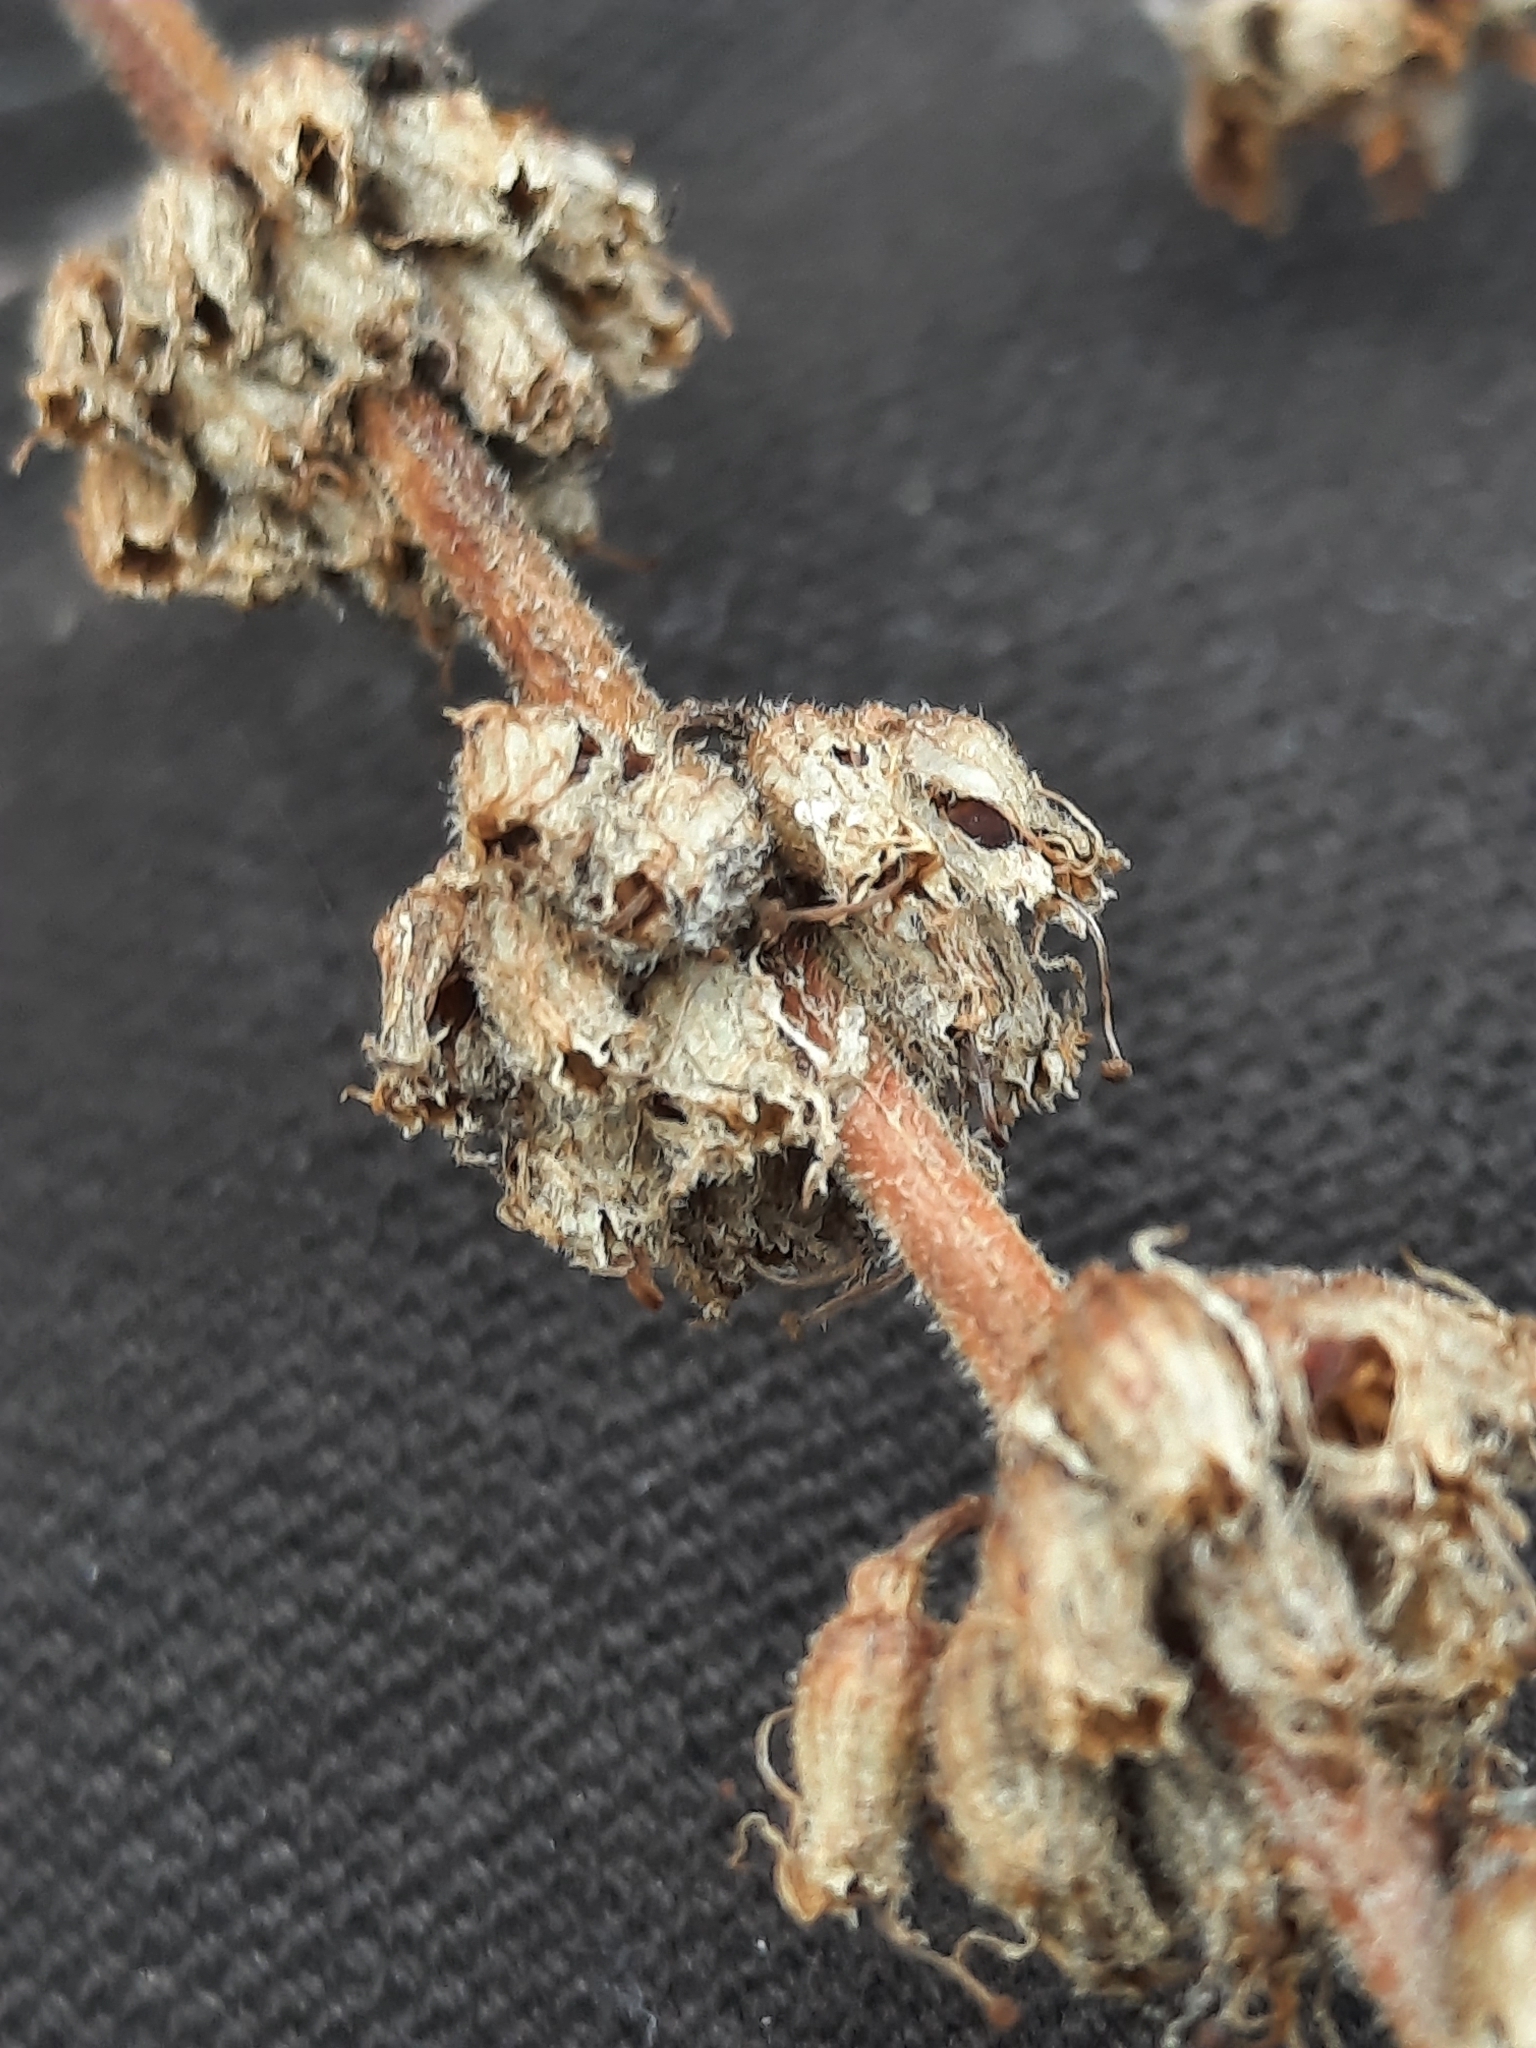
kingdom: Plantae
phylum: Tracheophyta
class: Magnoliopsida
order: Myrtales
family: Lythraceae
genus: Lythrum
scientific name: Lythrum salicaria
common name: Purple loosestrife
